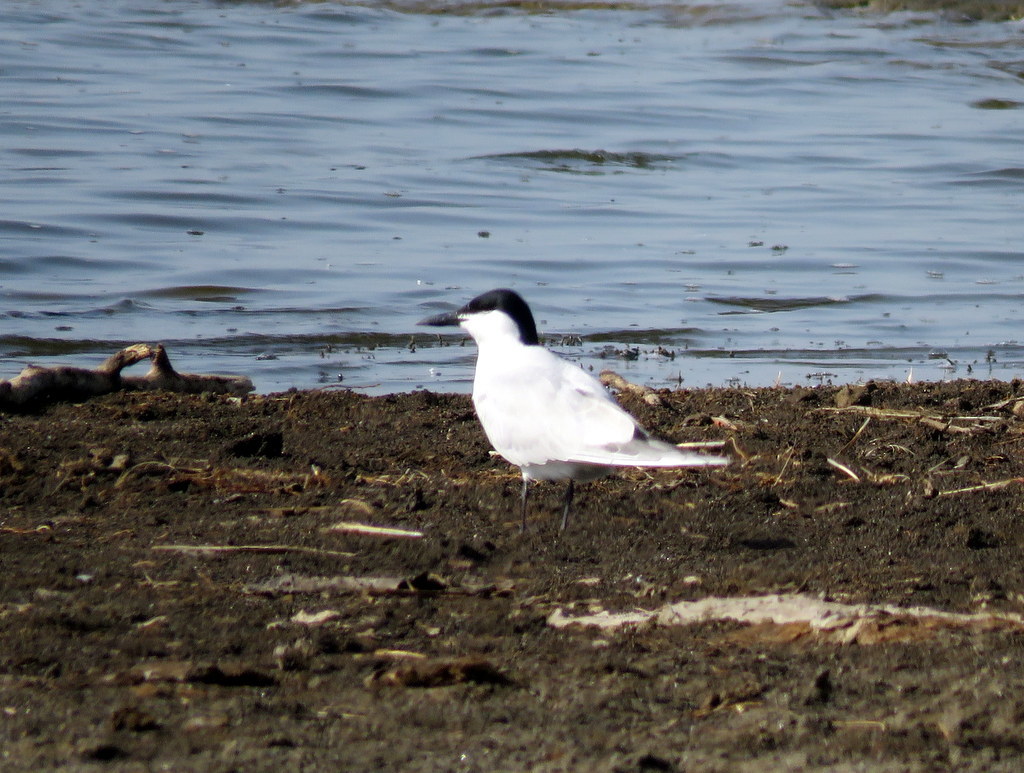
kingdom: Animalia
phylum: Chordata
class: Aves
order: Charadriiformes
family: Laridae
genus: Gelochelidon
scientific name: Gelochelidon nilotica
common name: Gull-billed tern
